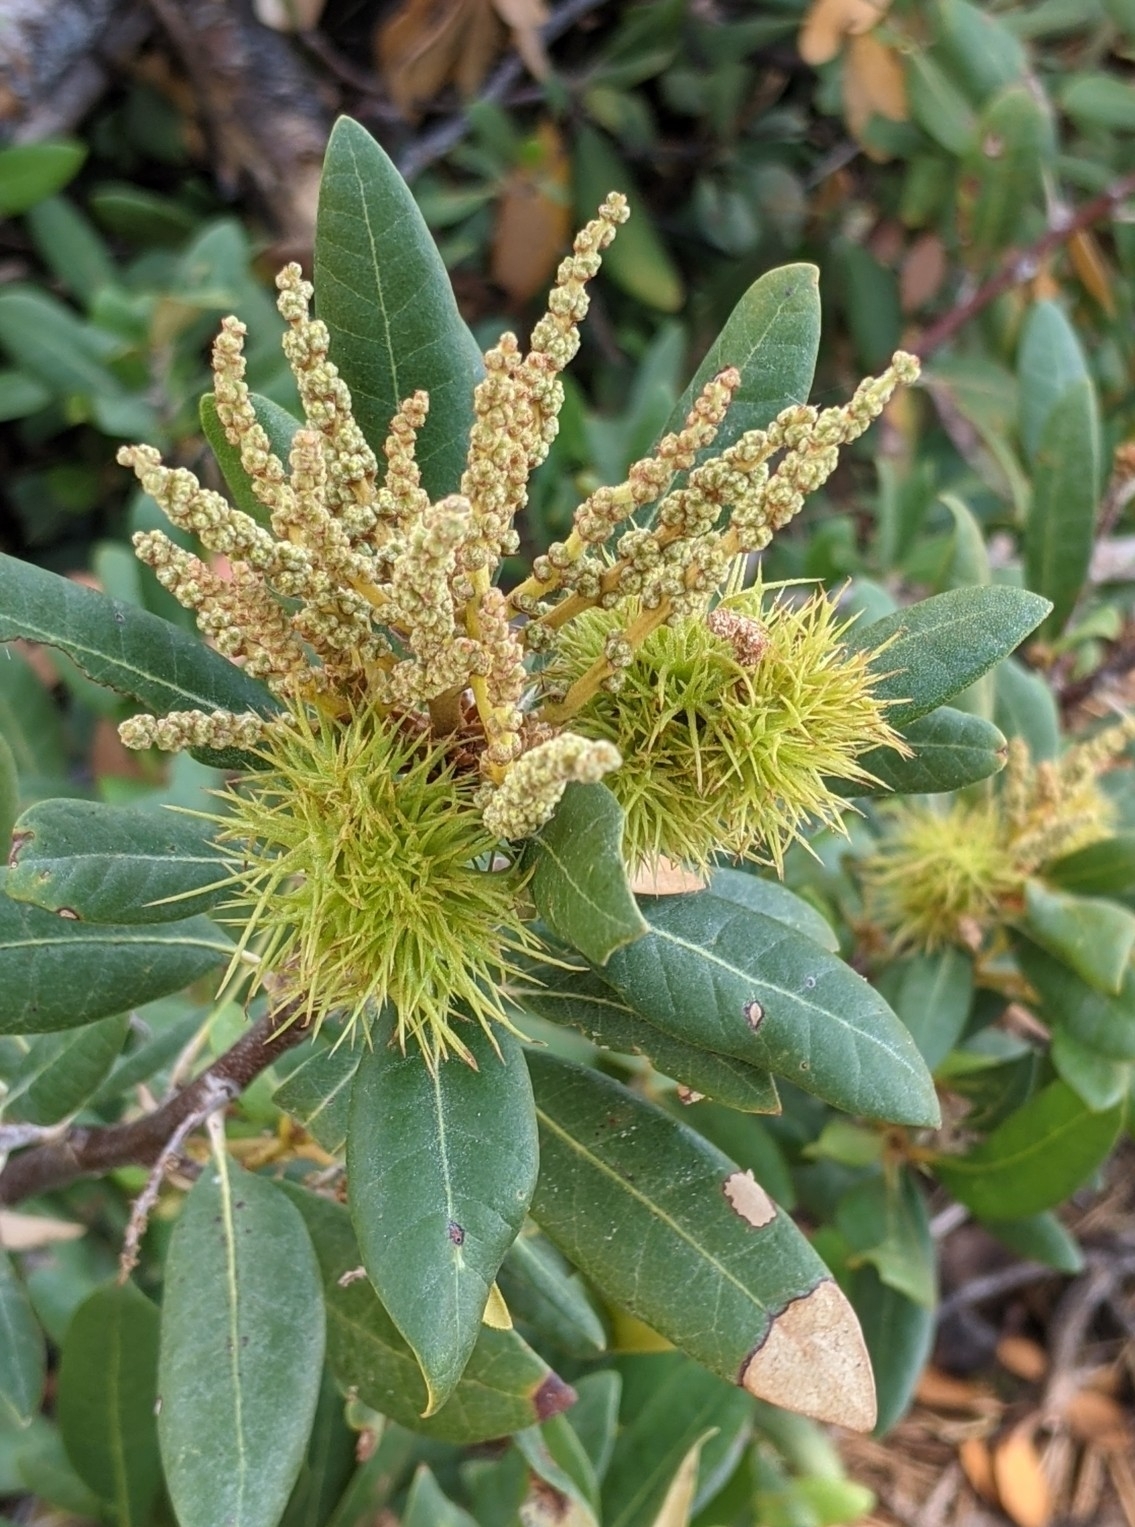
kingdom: Plantae
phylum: Tracheophyta
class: Magnoliopsida
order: Fagales
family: Fagaceae
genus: Chrysolepis
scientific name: Chrysolepis sempervirens
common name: Bush chinquapin
